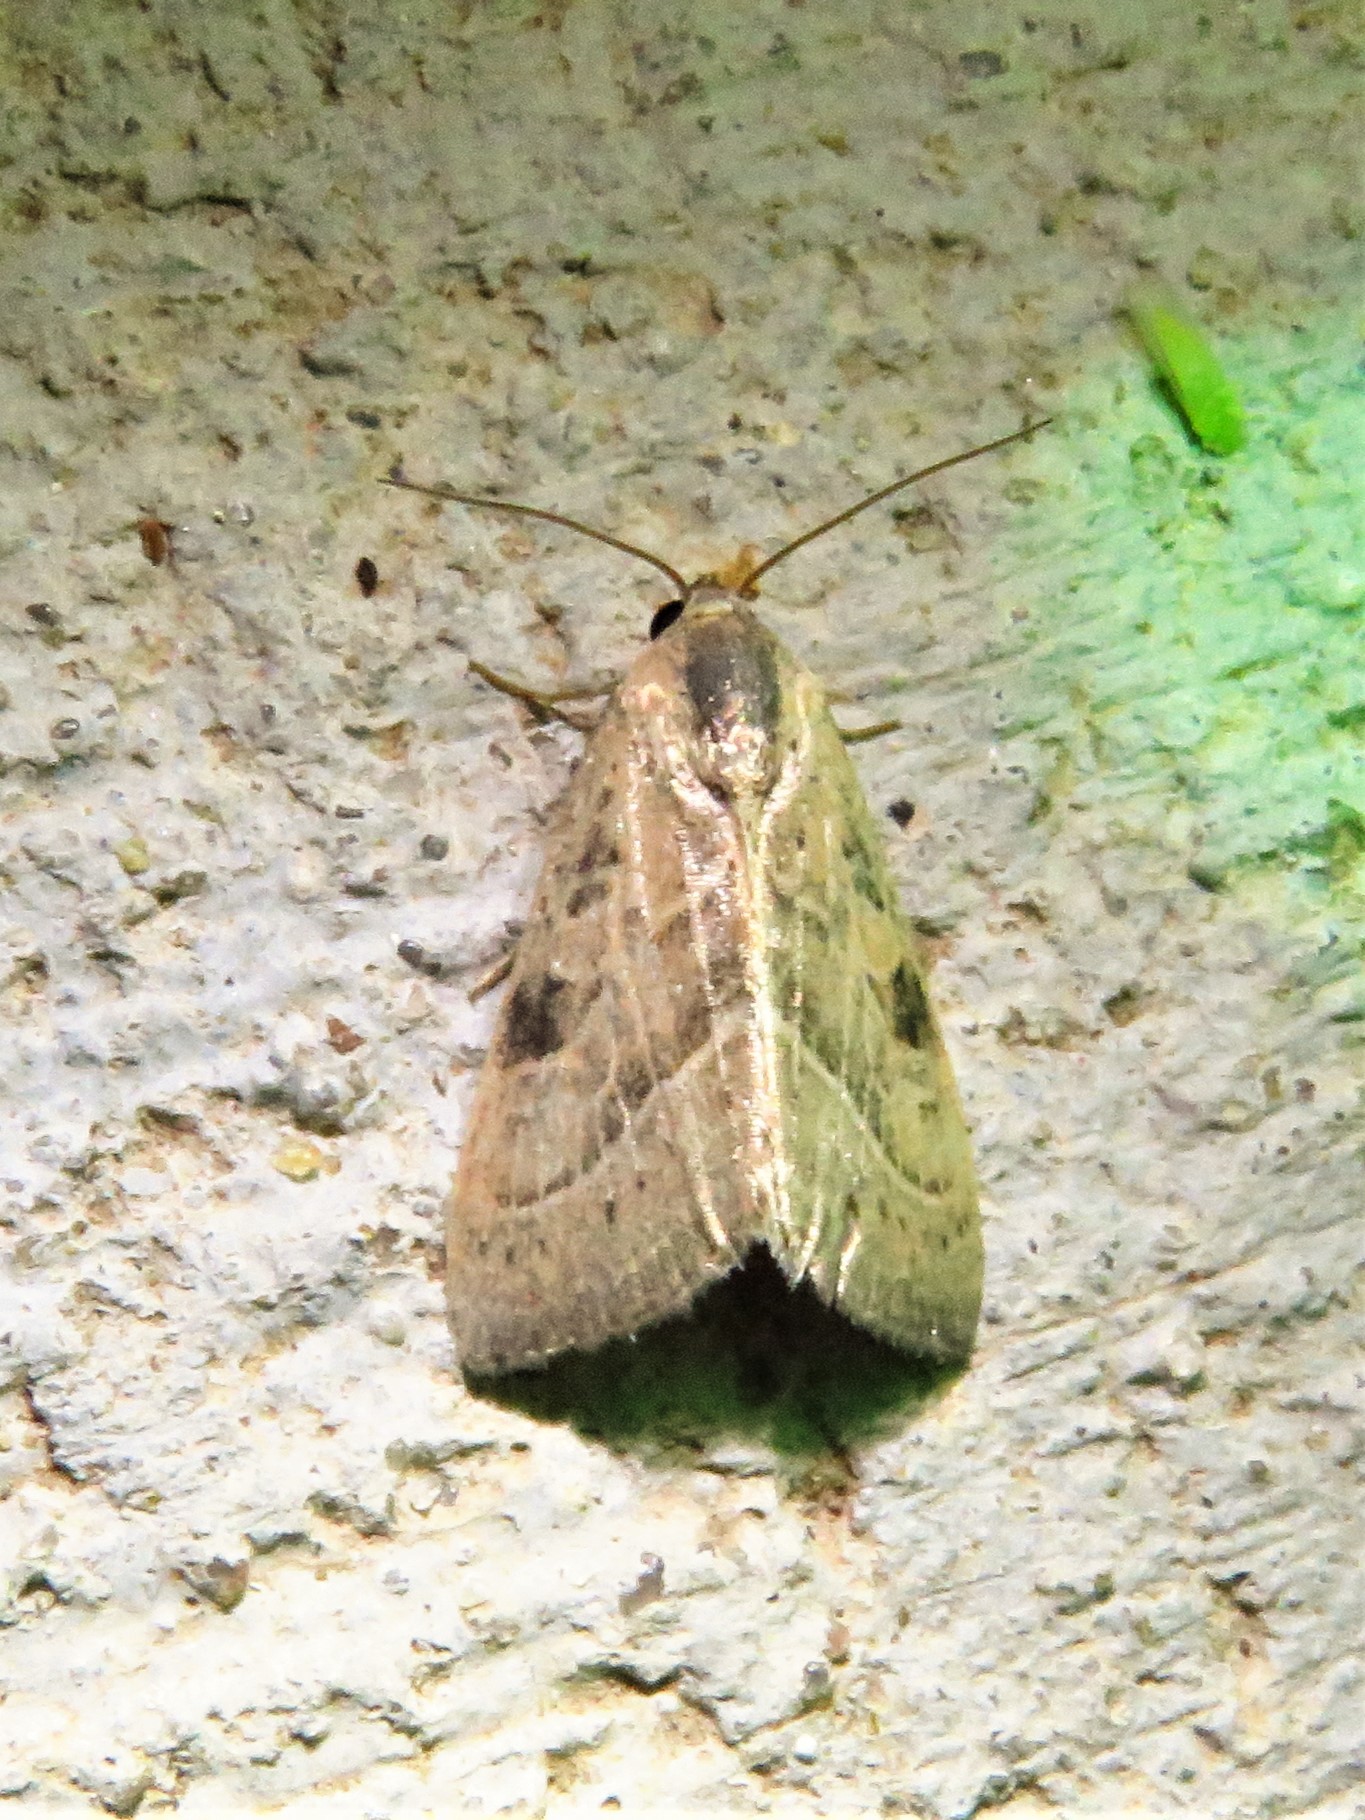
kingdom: Animalia
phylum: Arthropoda
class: Insecta
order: Lepidoptera
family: Noctuidae
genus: Galgula
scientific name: Galgula partita
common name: Wedgeling
